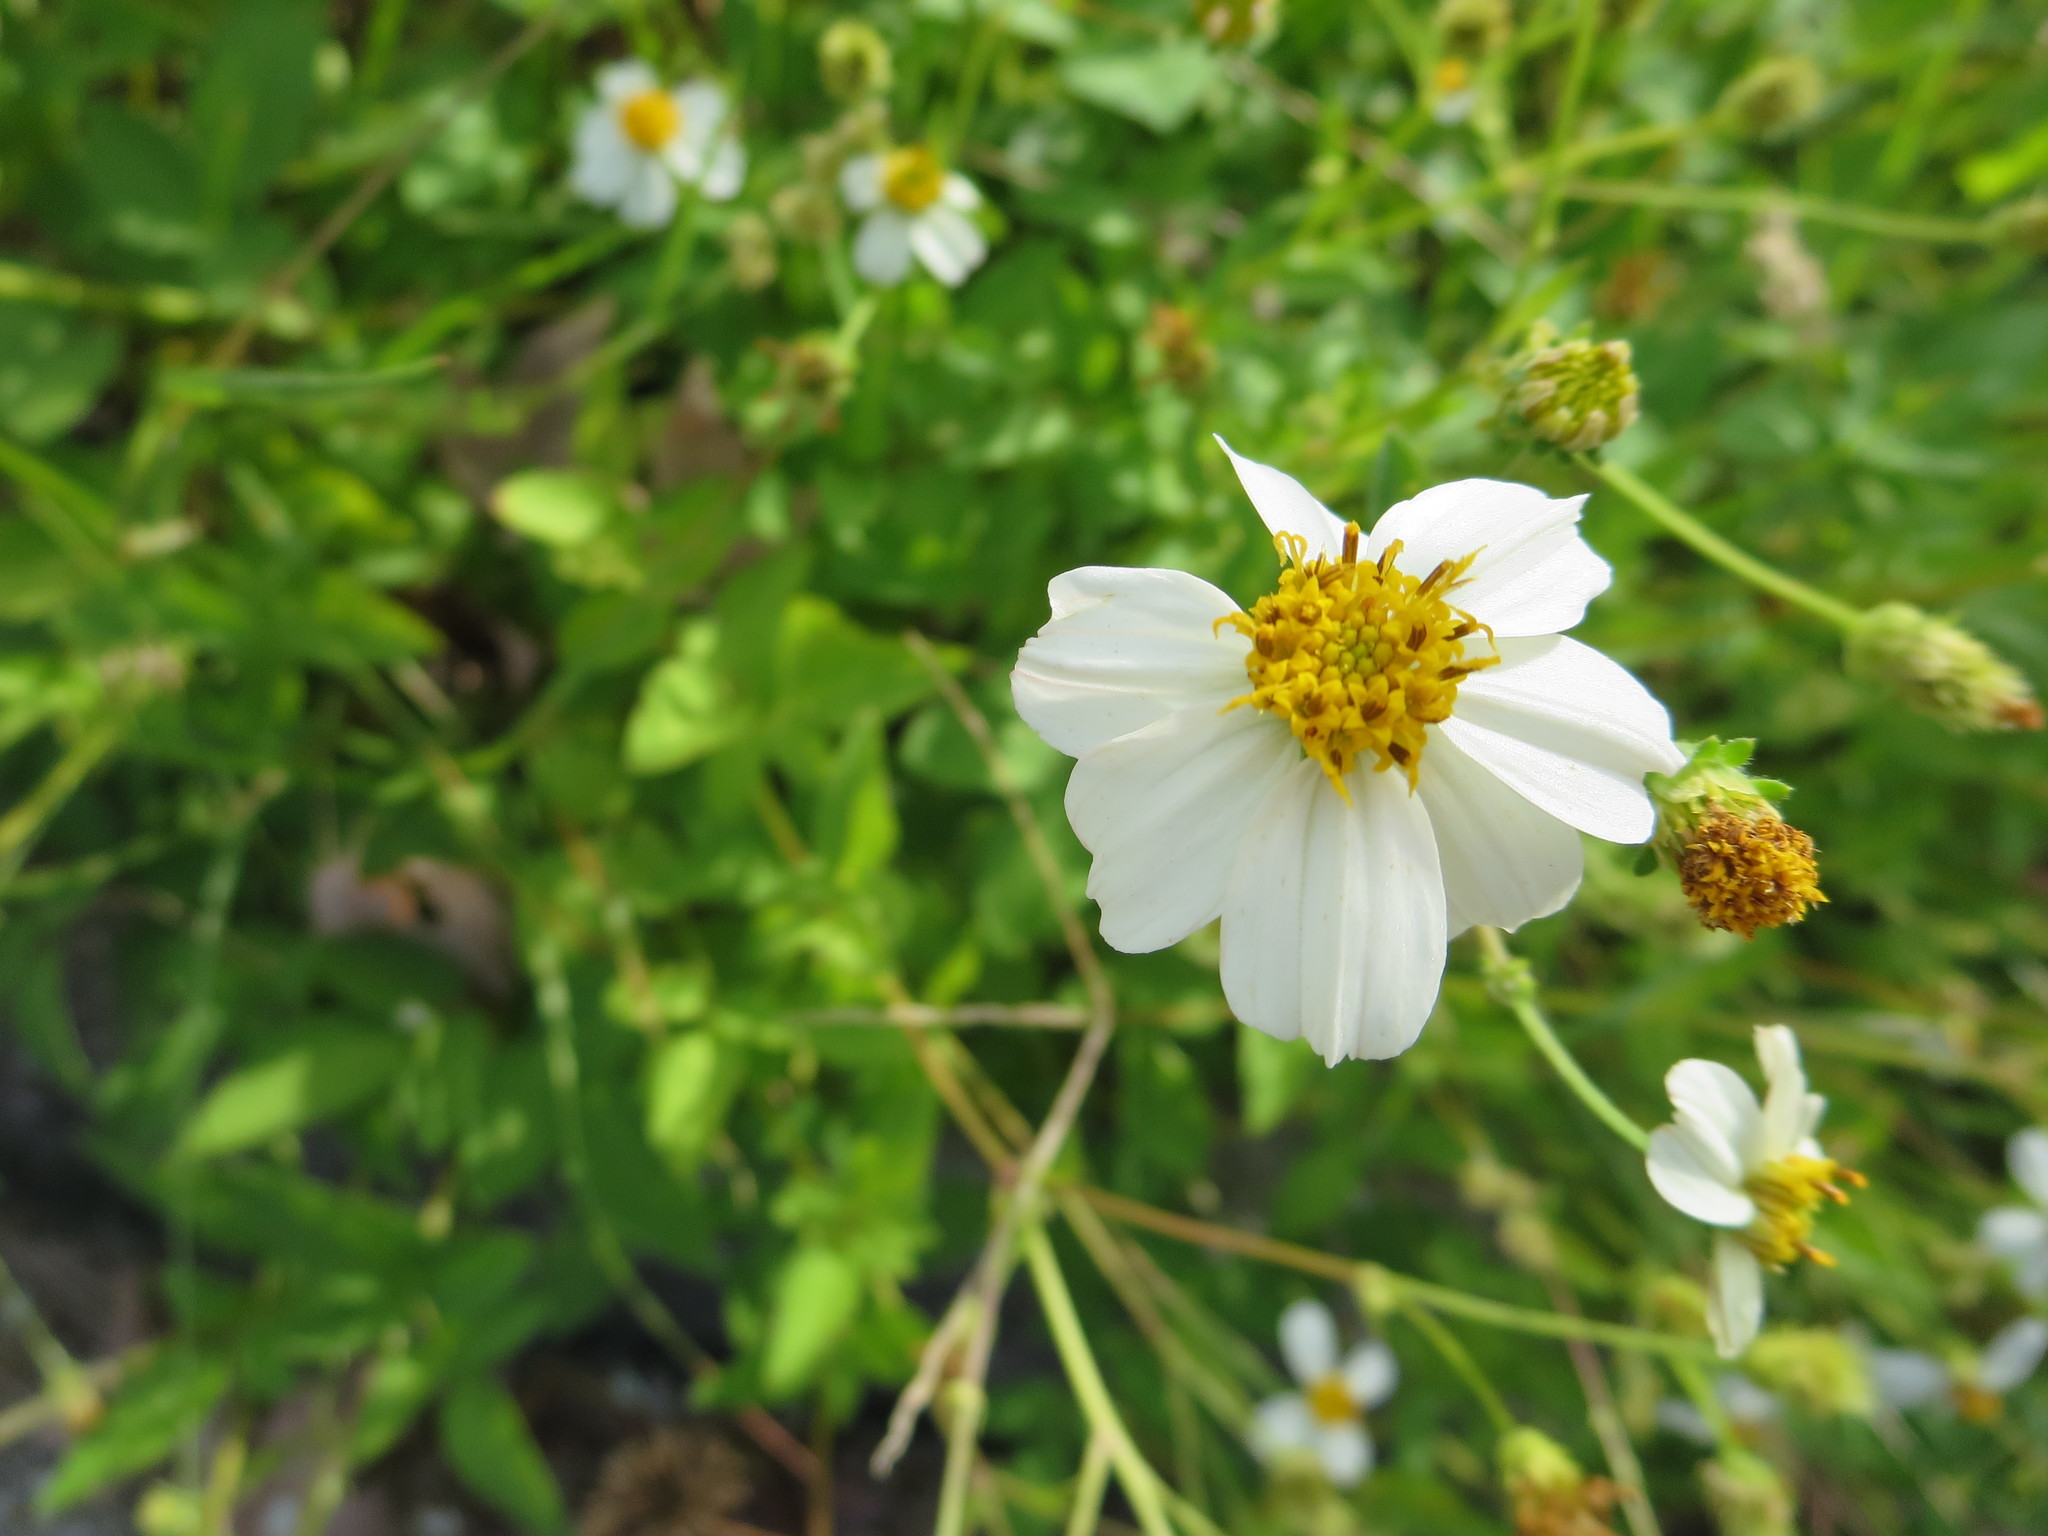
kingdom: Plantae
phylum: Tracheophyta
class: Magnoliopsida
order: Asterales
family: Asteraceae
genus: Bidens
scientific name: Bidens alba
